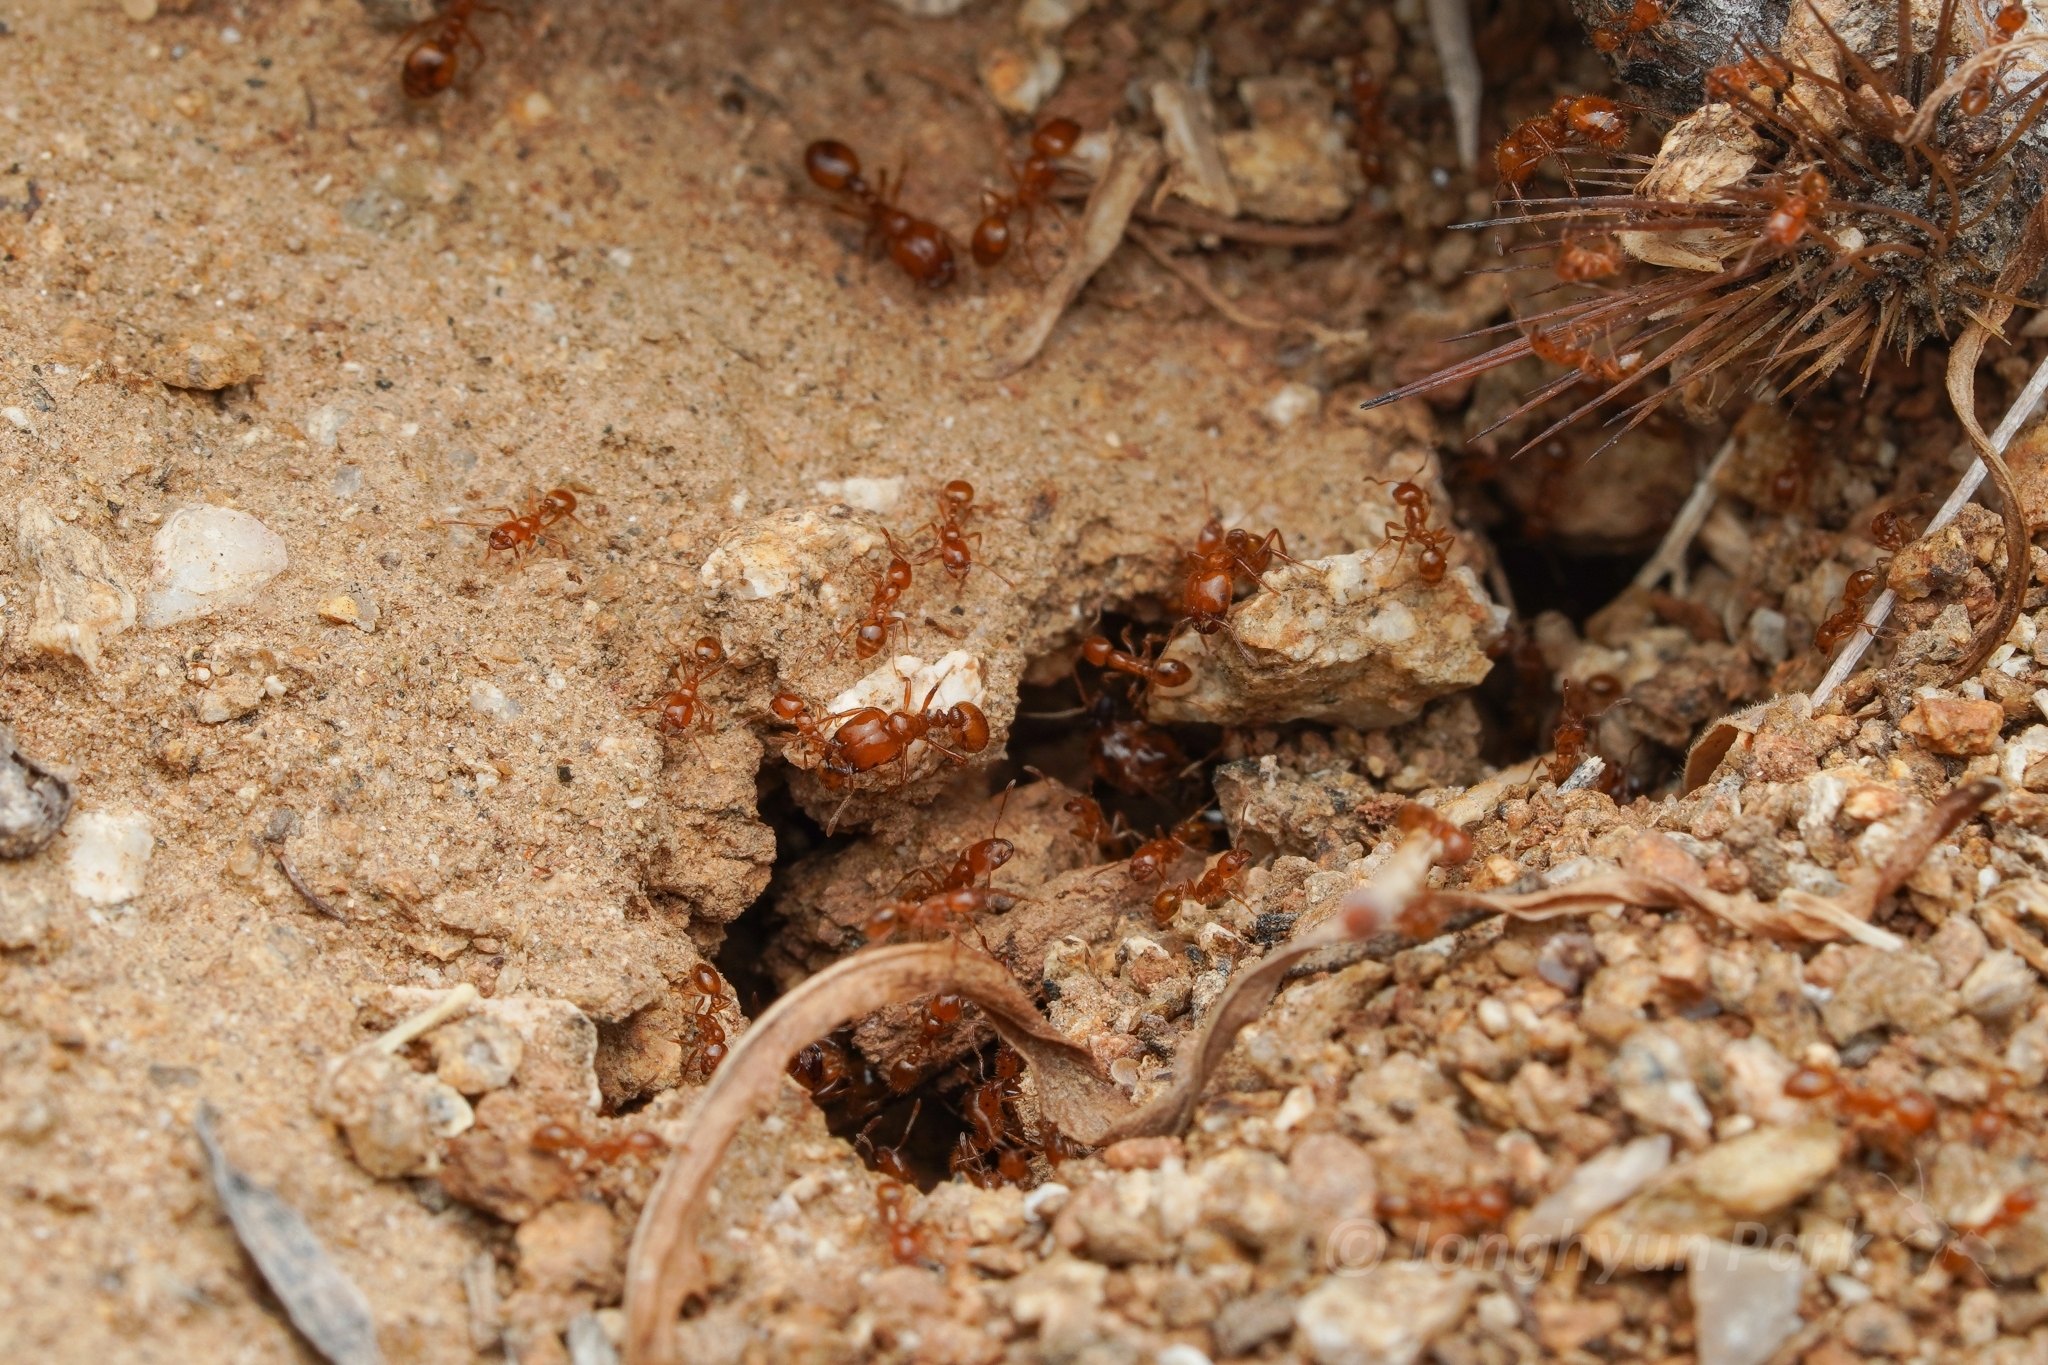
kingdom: Animalia
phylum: Arthropoda
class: Insecta
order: Hymenoptera
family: Formicidae
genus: Solenopsis
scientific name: Solenopsis aurea
